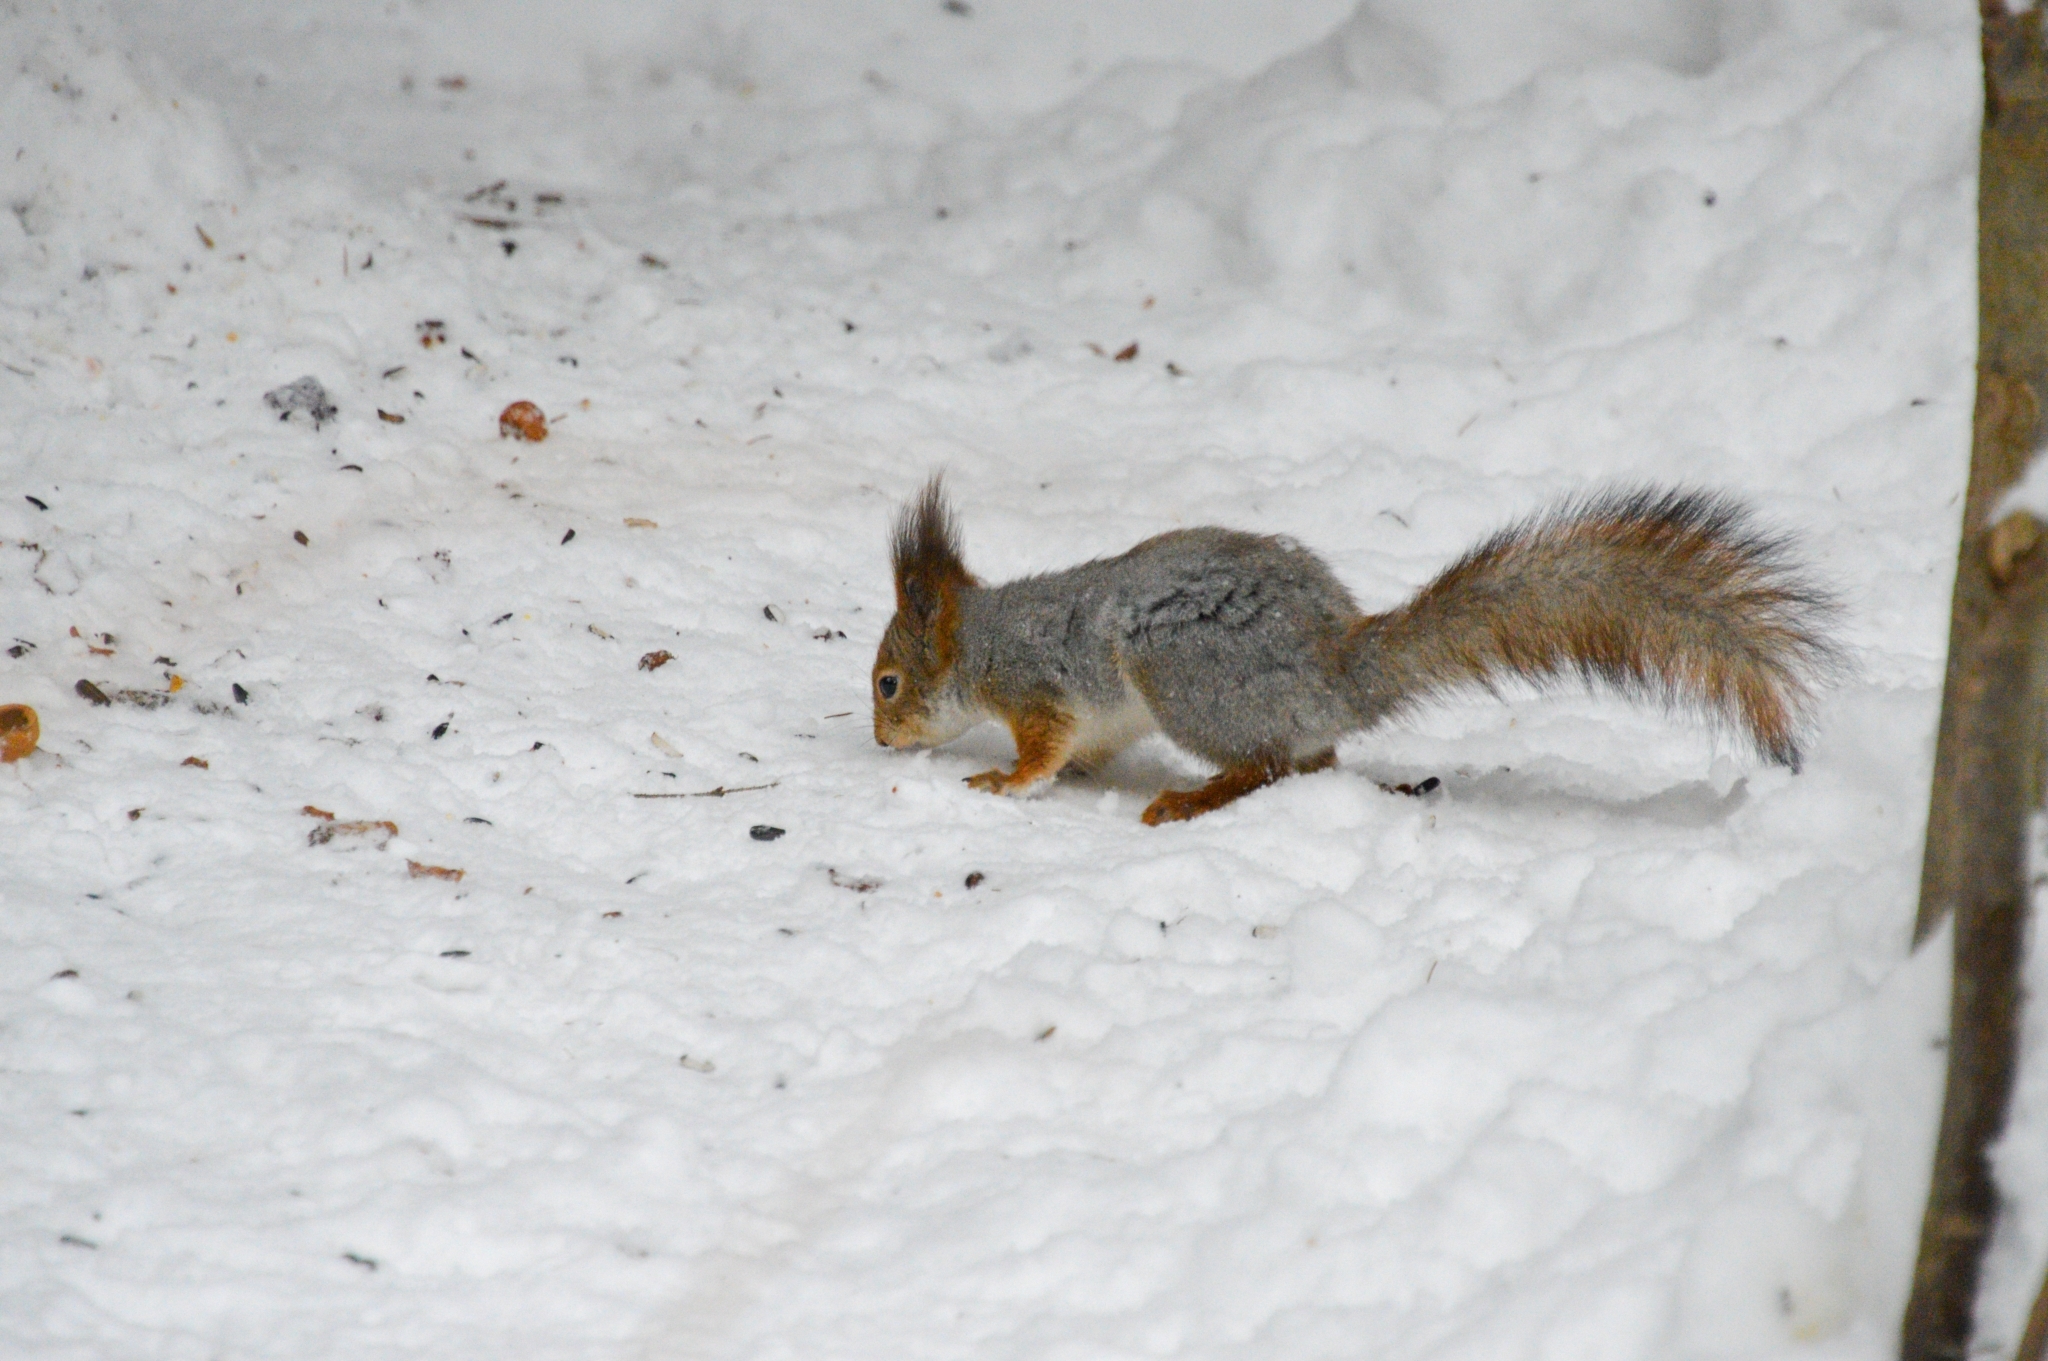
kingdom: Animalia
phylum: Chordata
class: Mammalia
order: Rodentia
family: Sciuridae
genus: Sciurus
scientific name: Sciurus vulgaris
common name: Eurasian red squirrel
